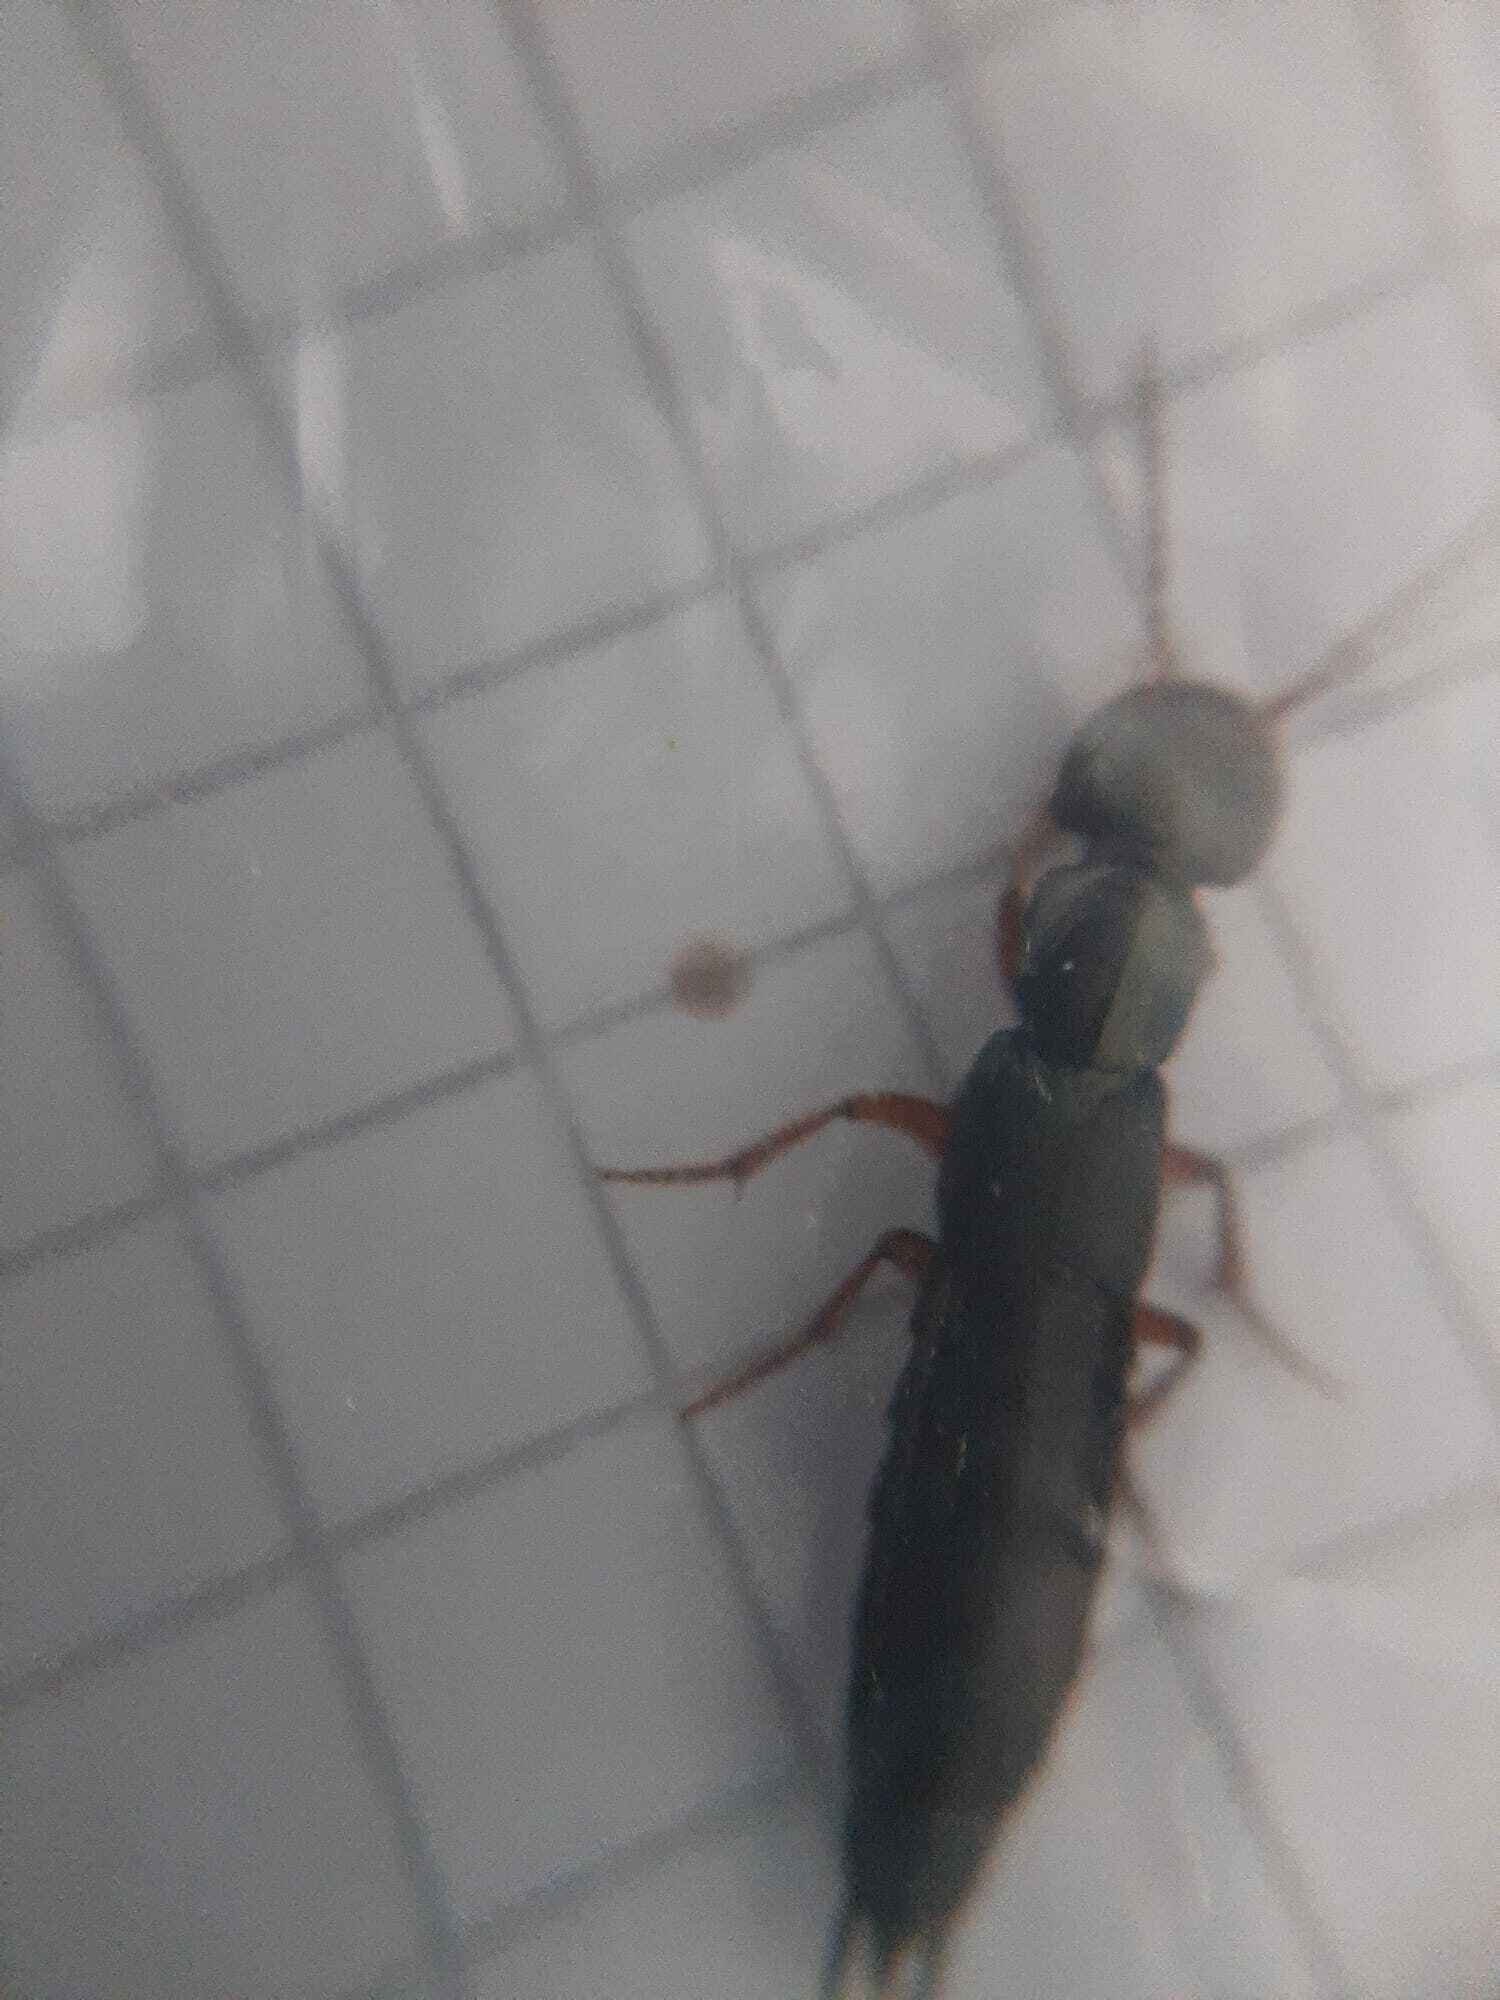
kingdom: Animalia
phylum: Arthropoda
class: Insecta
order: Coleoptera
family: Staphylinidae
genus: Tasgius
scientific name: Tasgius falcifer
